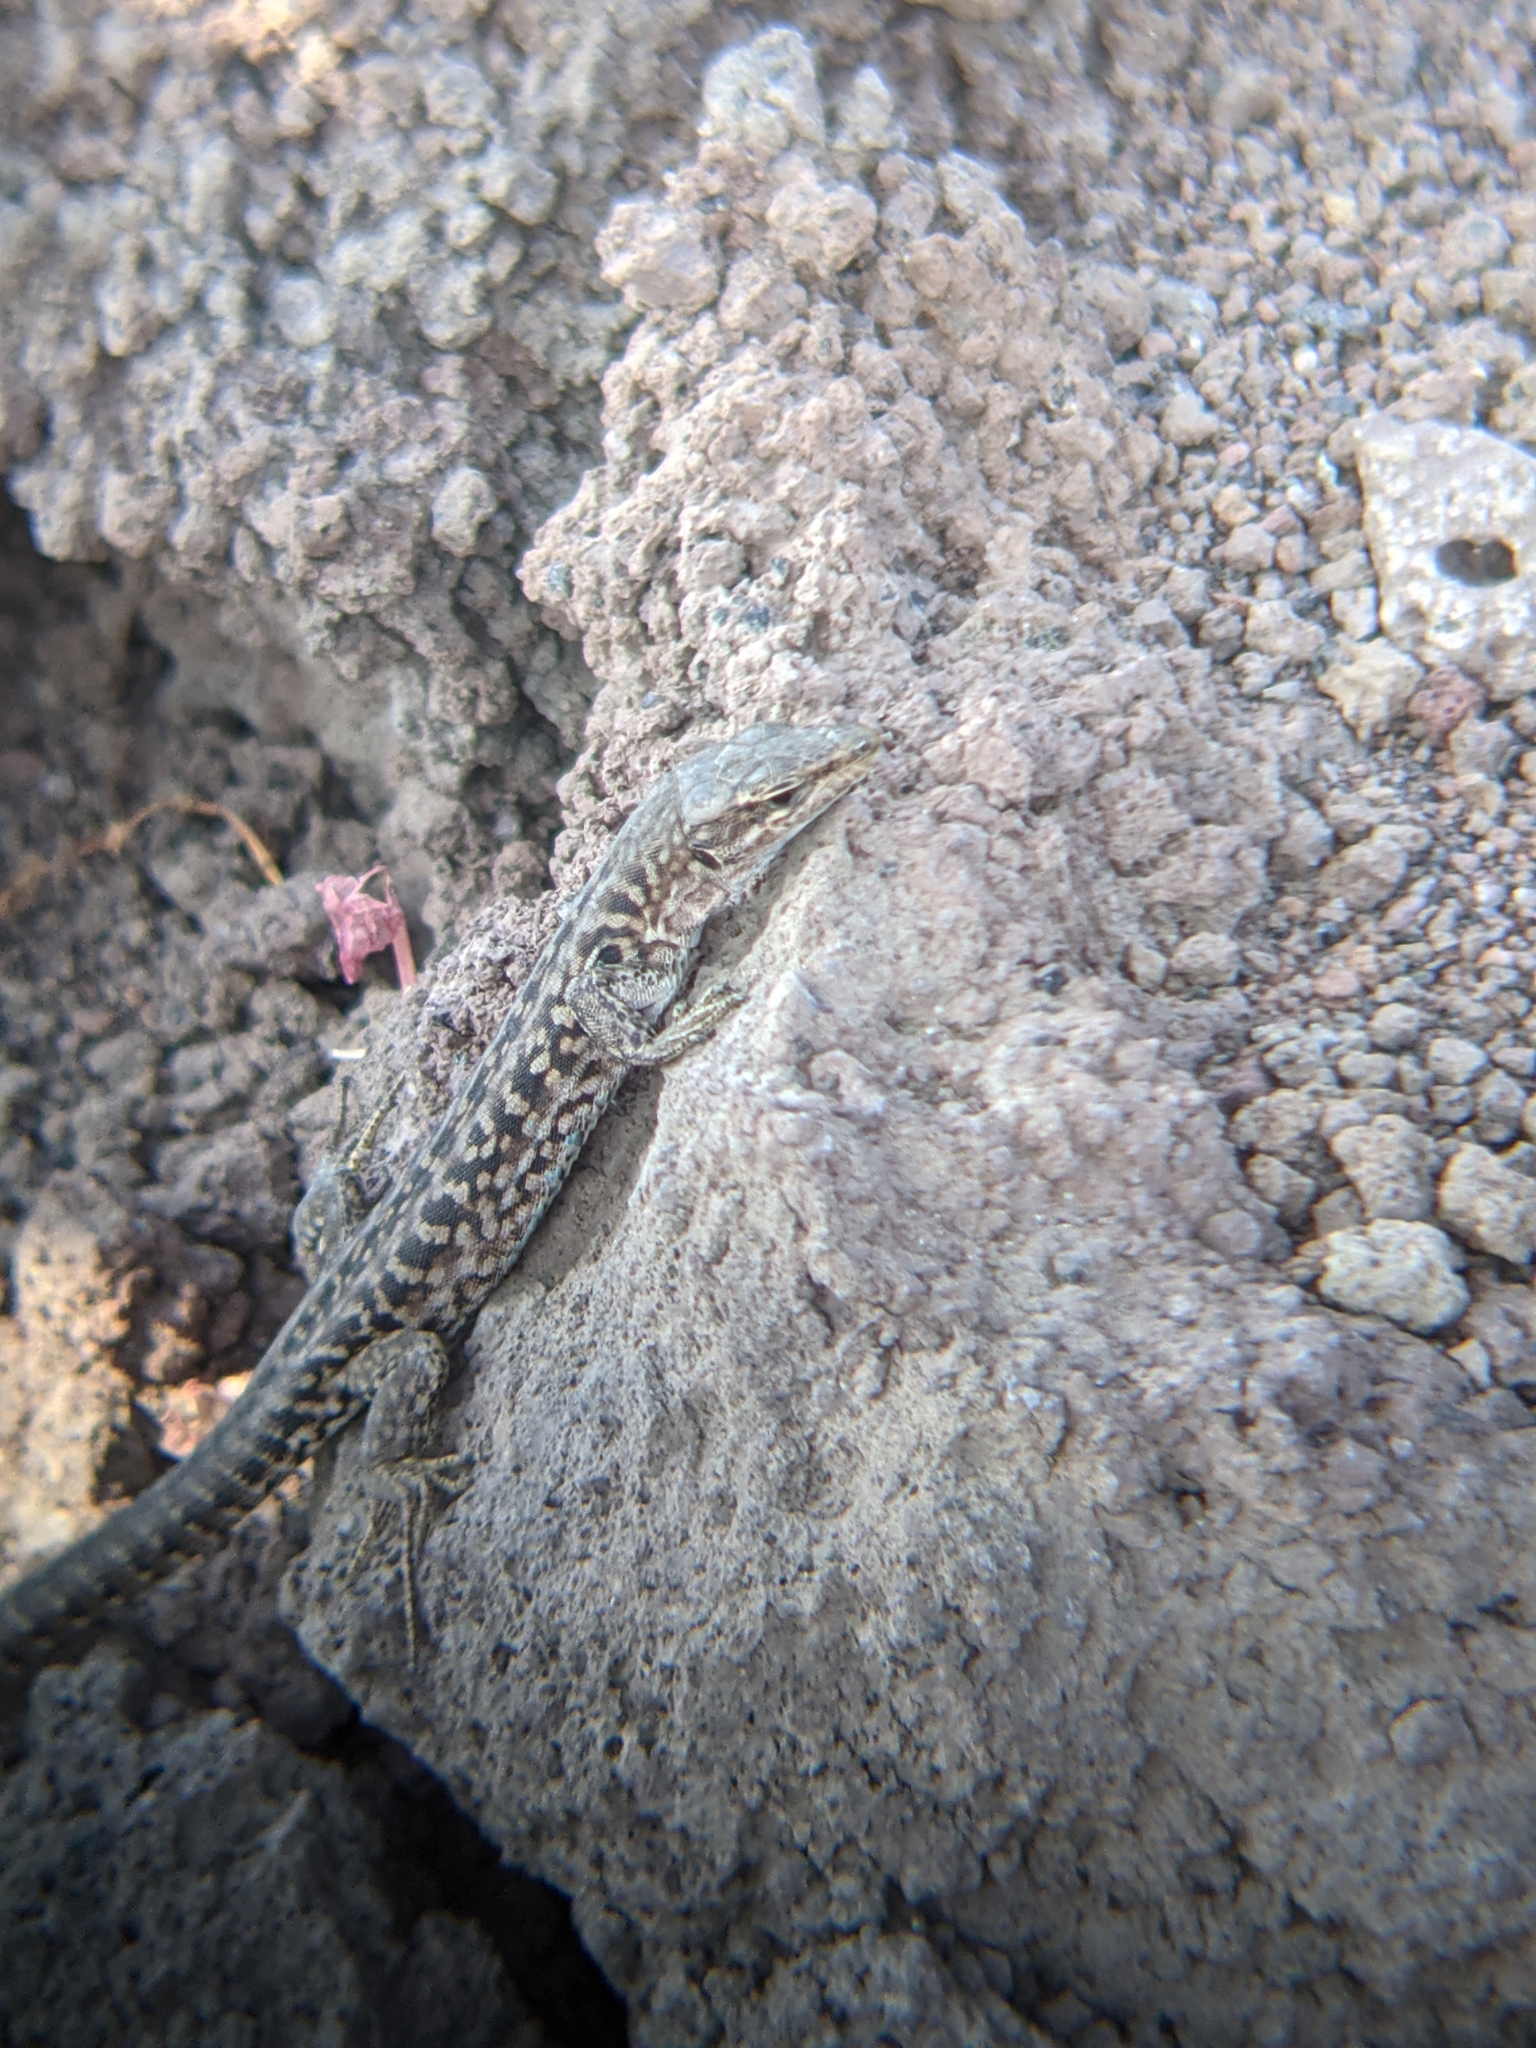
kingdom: Animalia
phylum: Chordata
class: Squamata
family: Lacertidae
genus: Podarcis
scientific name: Podarcis siculus
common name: Italian wall lizard
